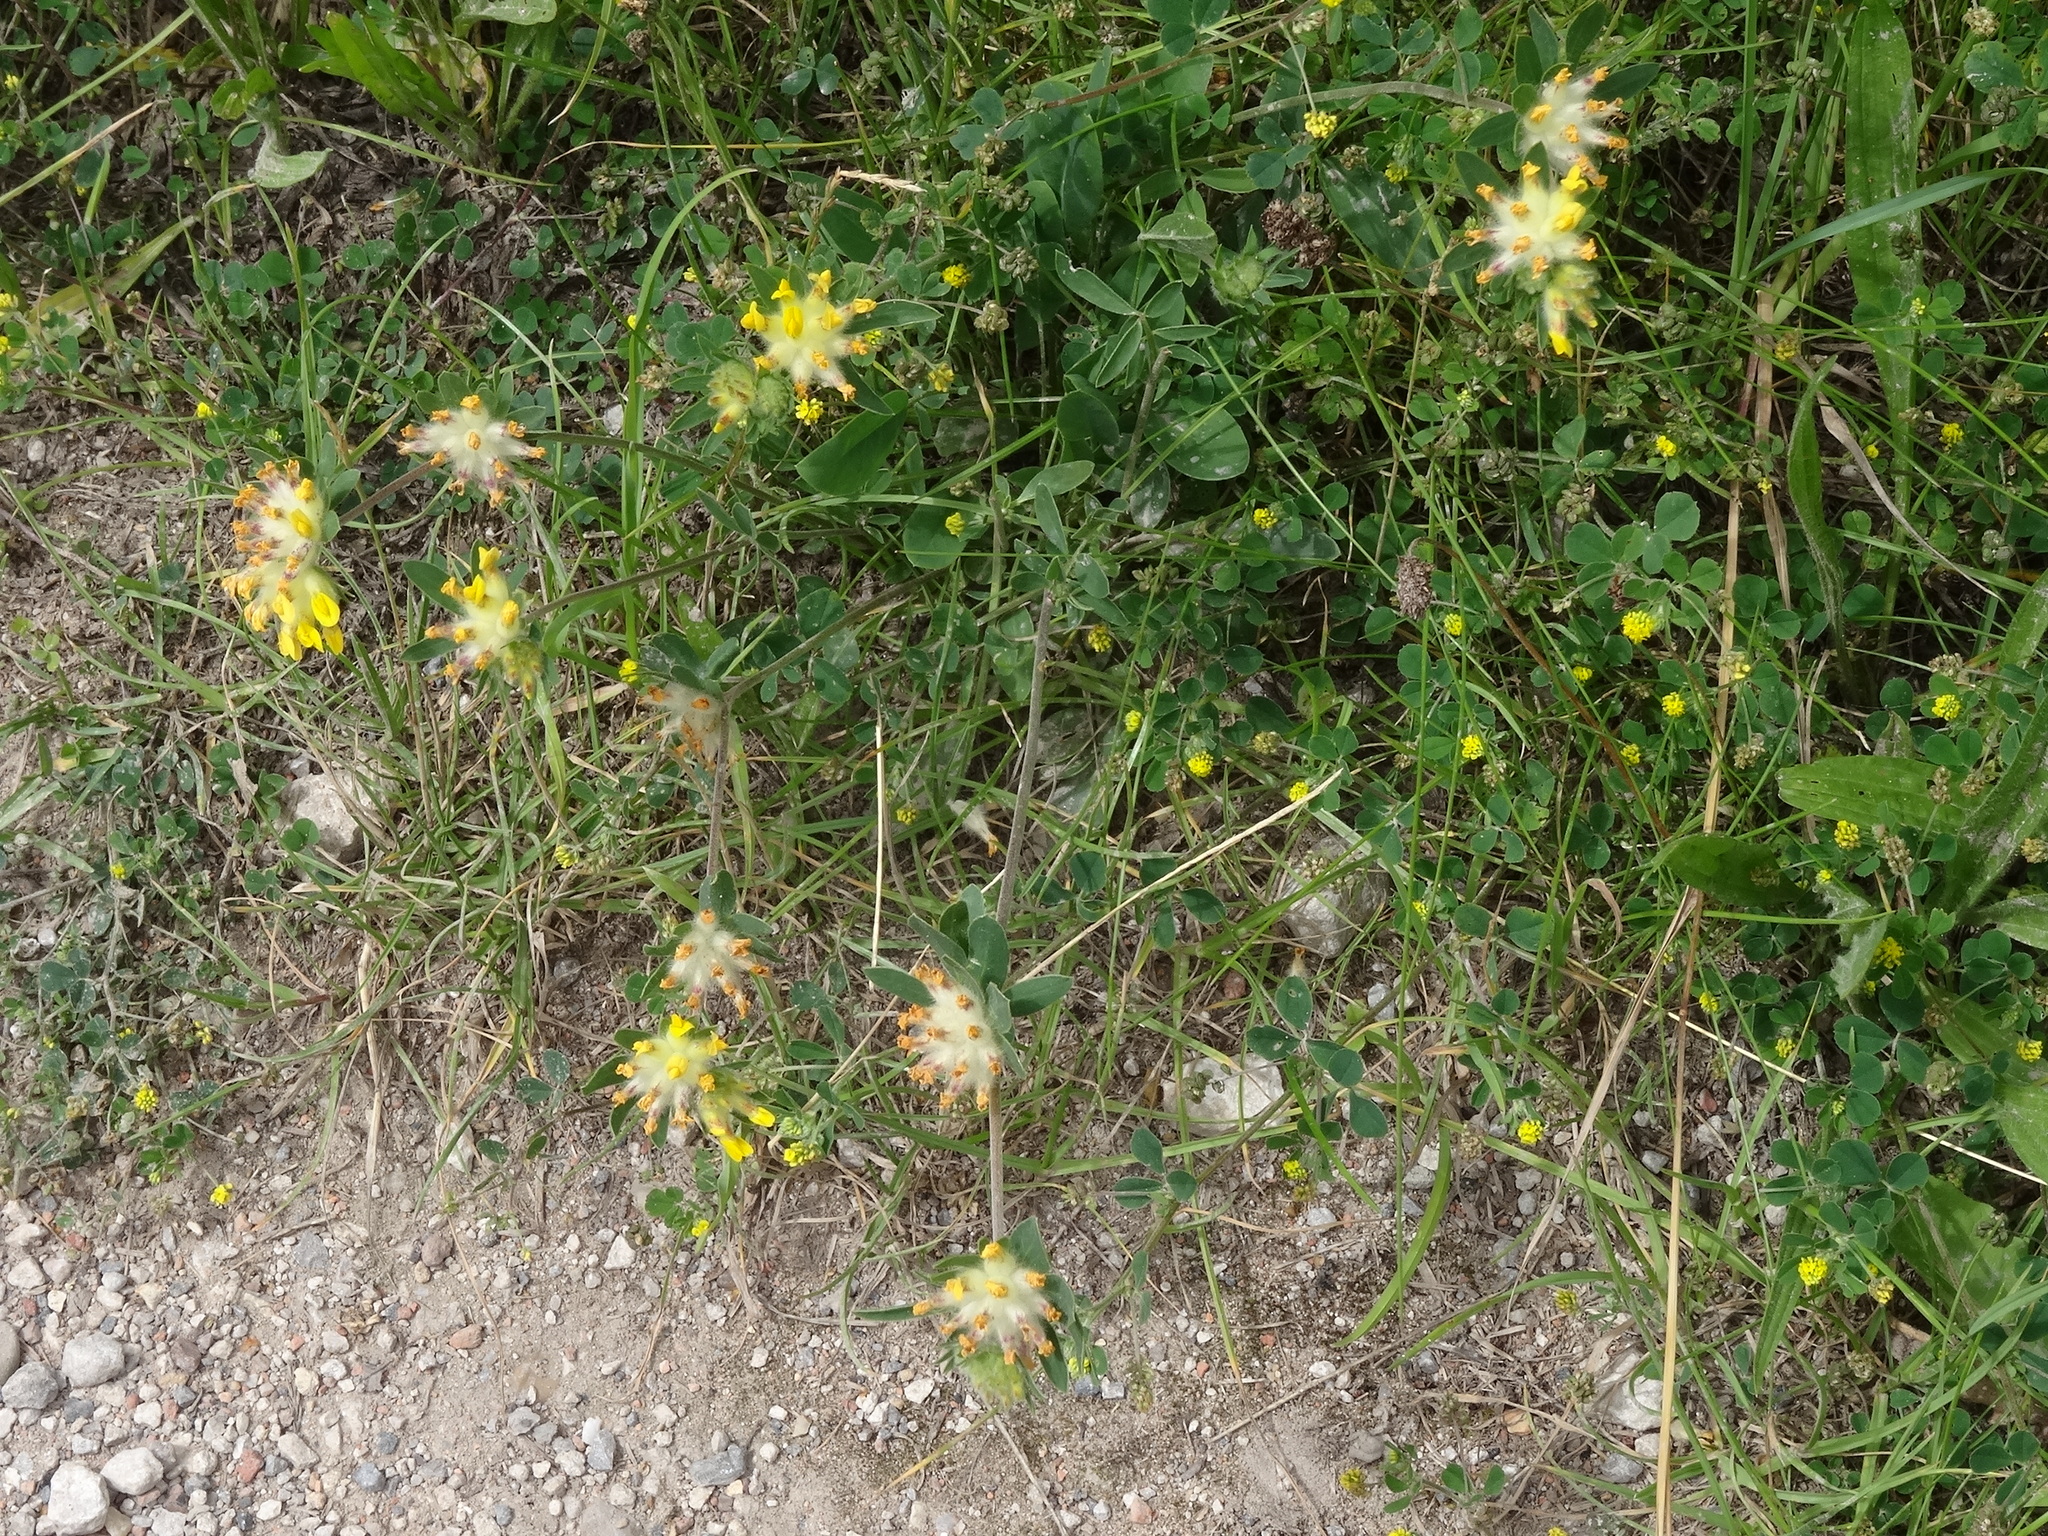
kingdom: Plantae
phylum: Tracheophyta
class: Magnoliopsida
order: Fabales
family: Fabaceae
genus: Anthyllis
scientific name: Anthyllis vulneraria
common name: Kidney vetch
